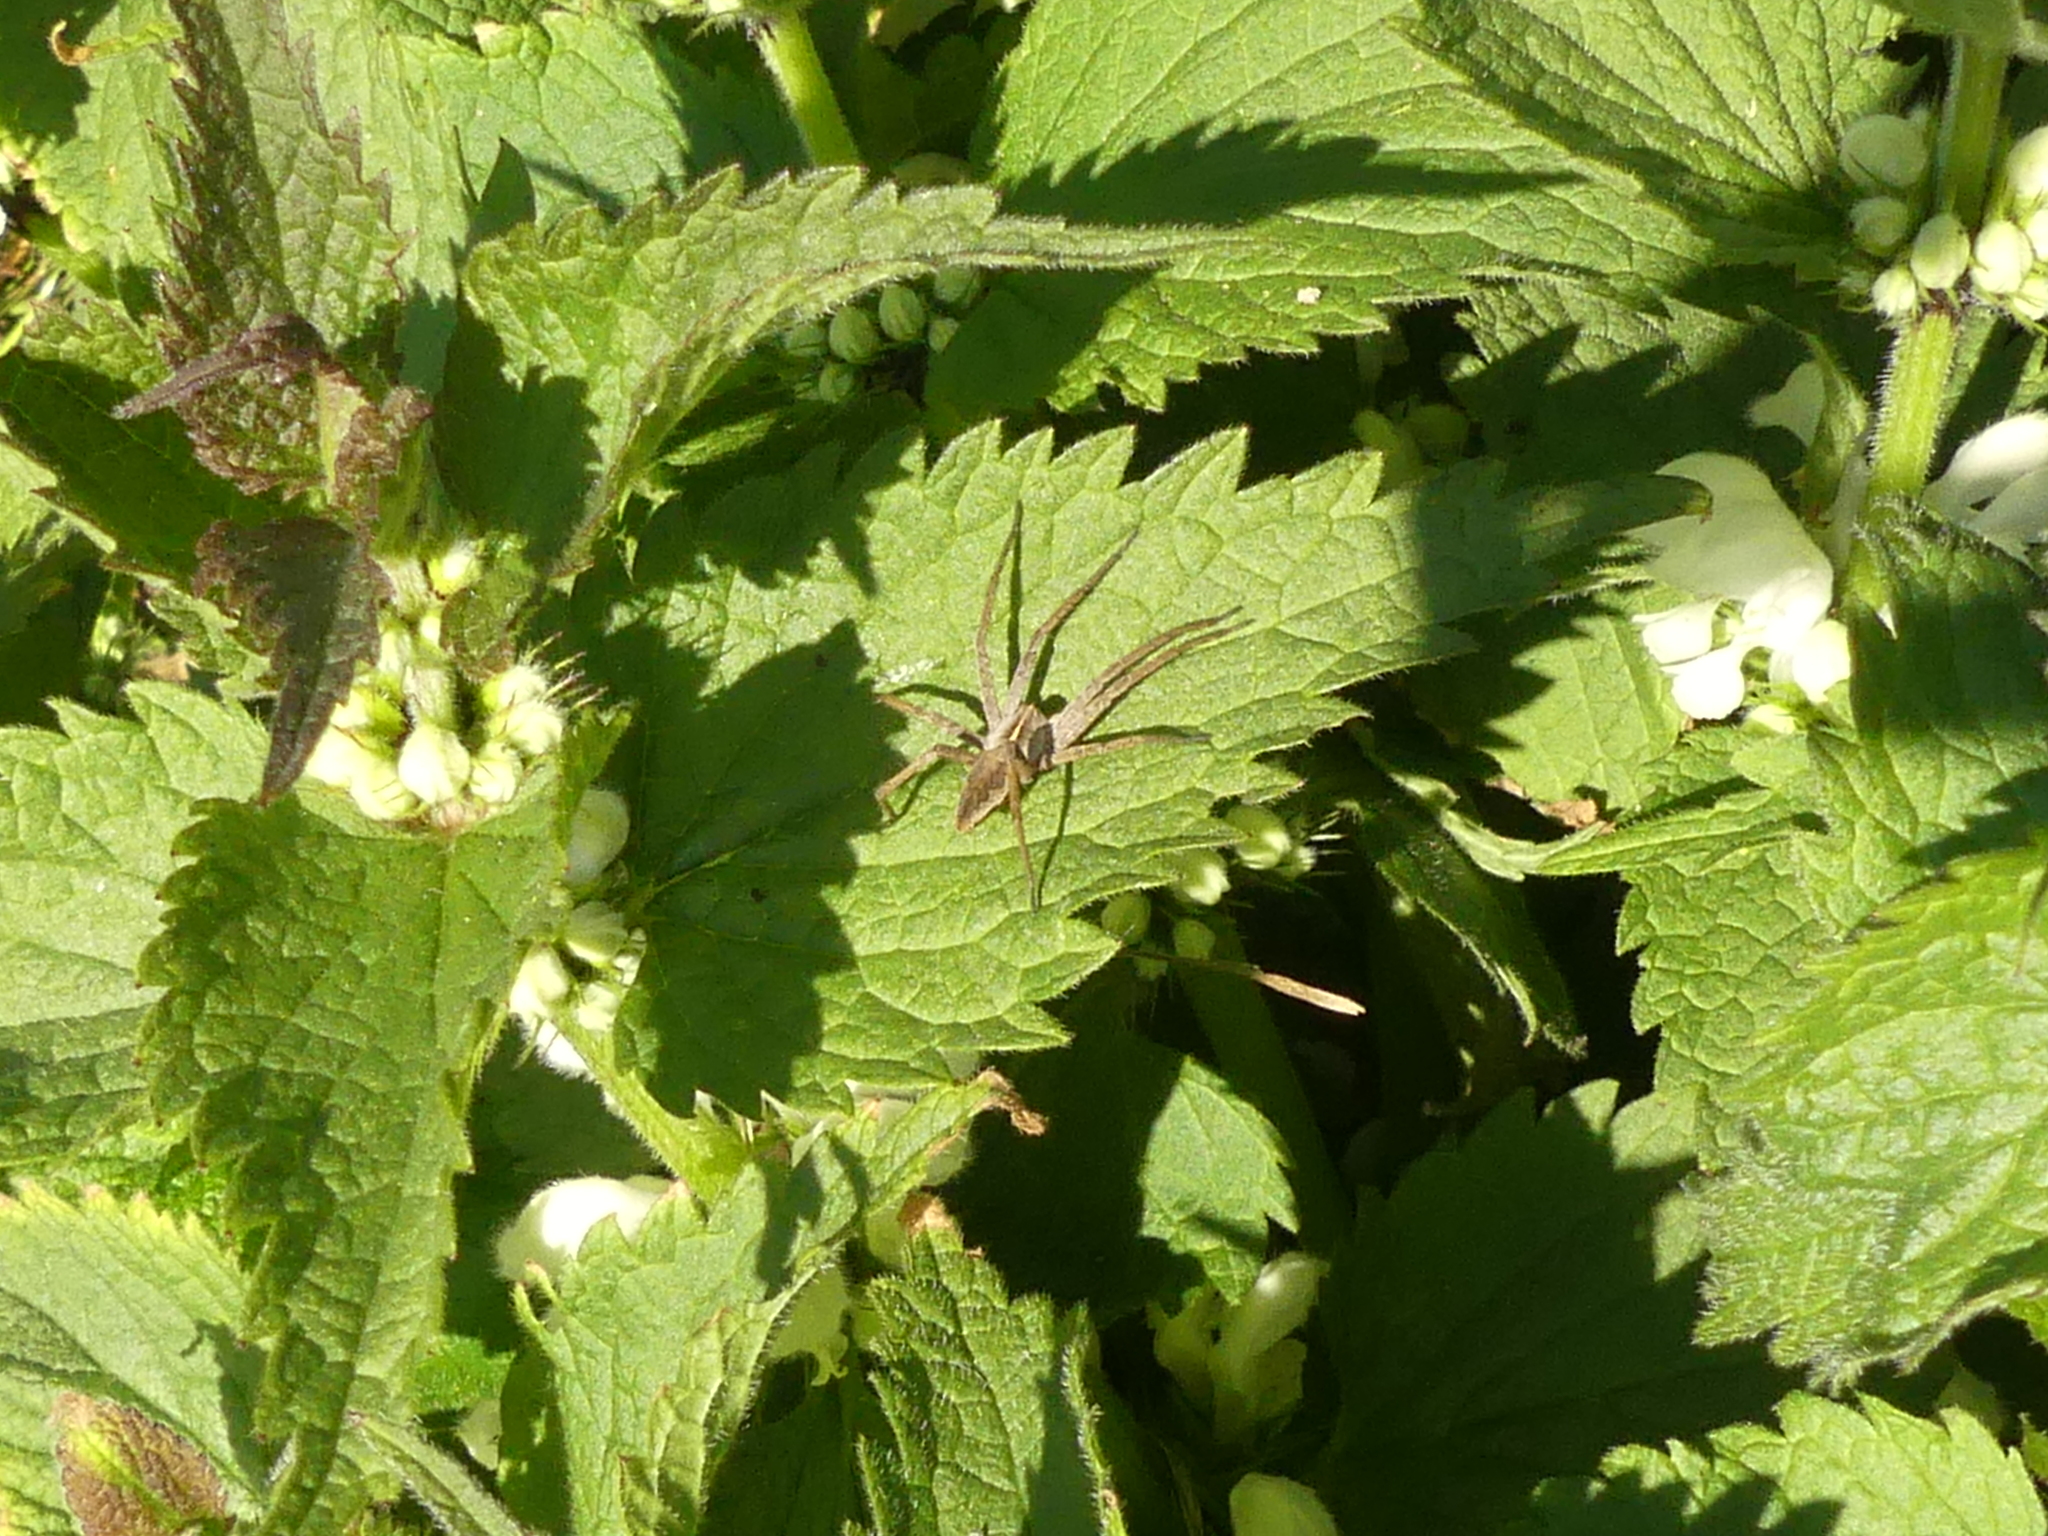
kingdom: Animalia
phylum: Arthropoda
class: Arachnida
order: Araneae
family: Pisauridae
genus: Pisaura
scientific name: Pisaura mirabilis
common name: Tent spider
